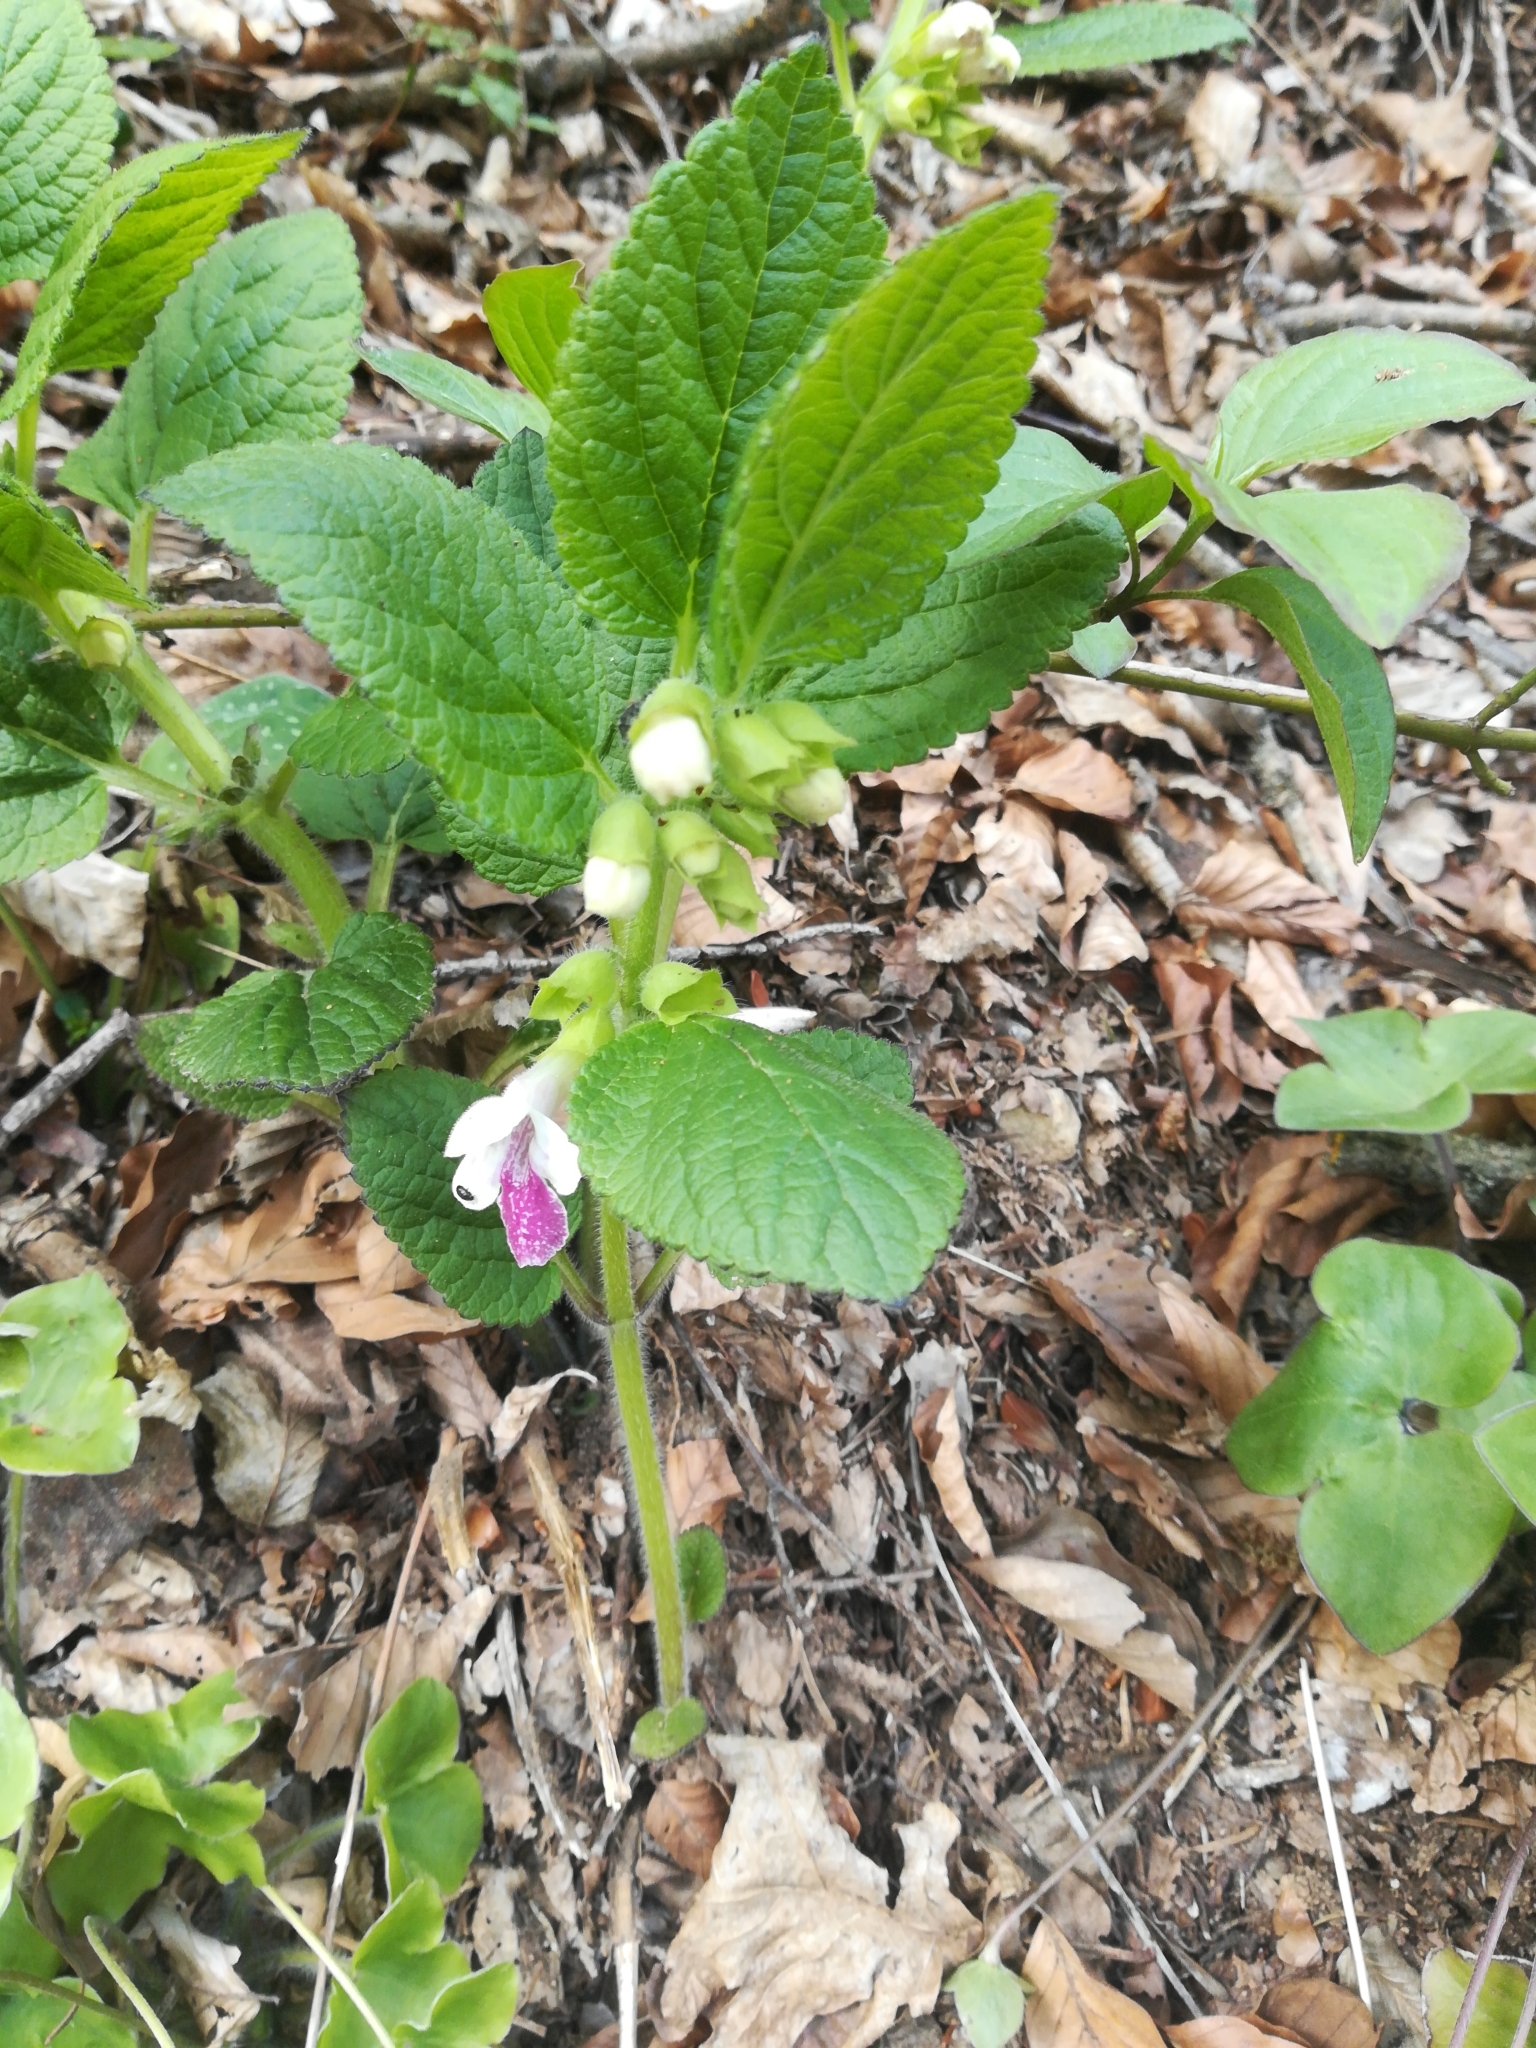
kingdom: Plantae
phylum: Tracheophyta
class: Magnoliopsida
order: Lamiales
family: Lamiaceae
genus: Melittis
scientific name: Melittis melissophyllum
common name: Bastard balm
